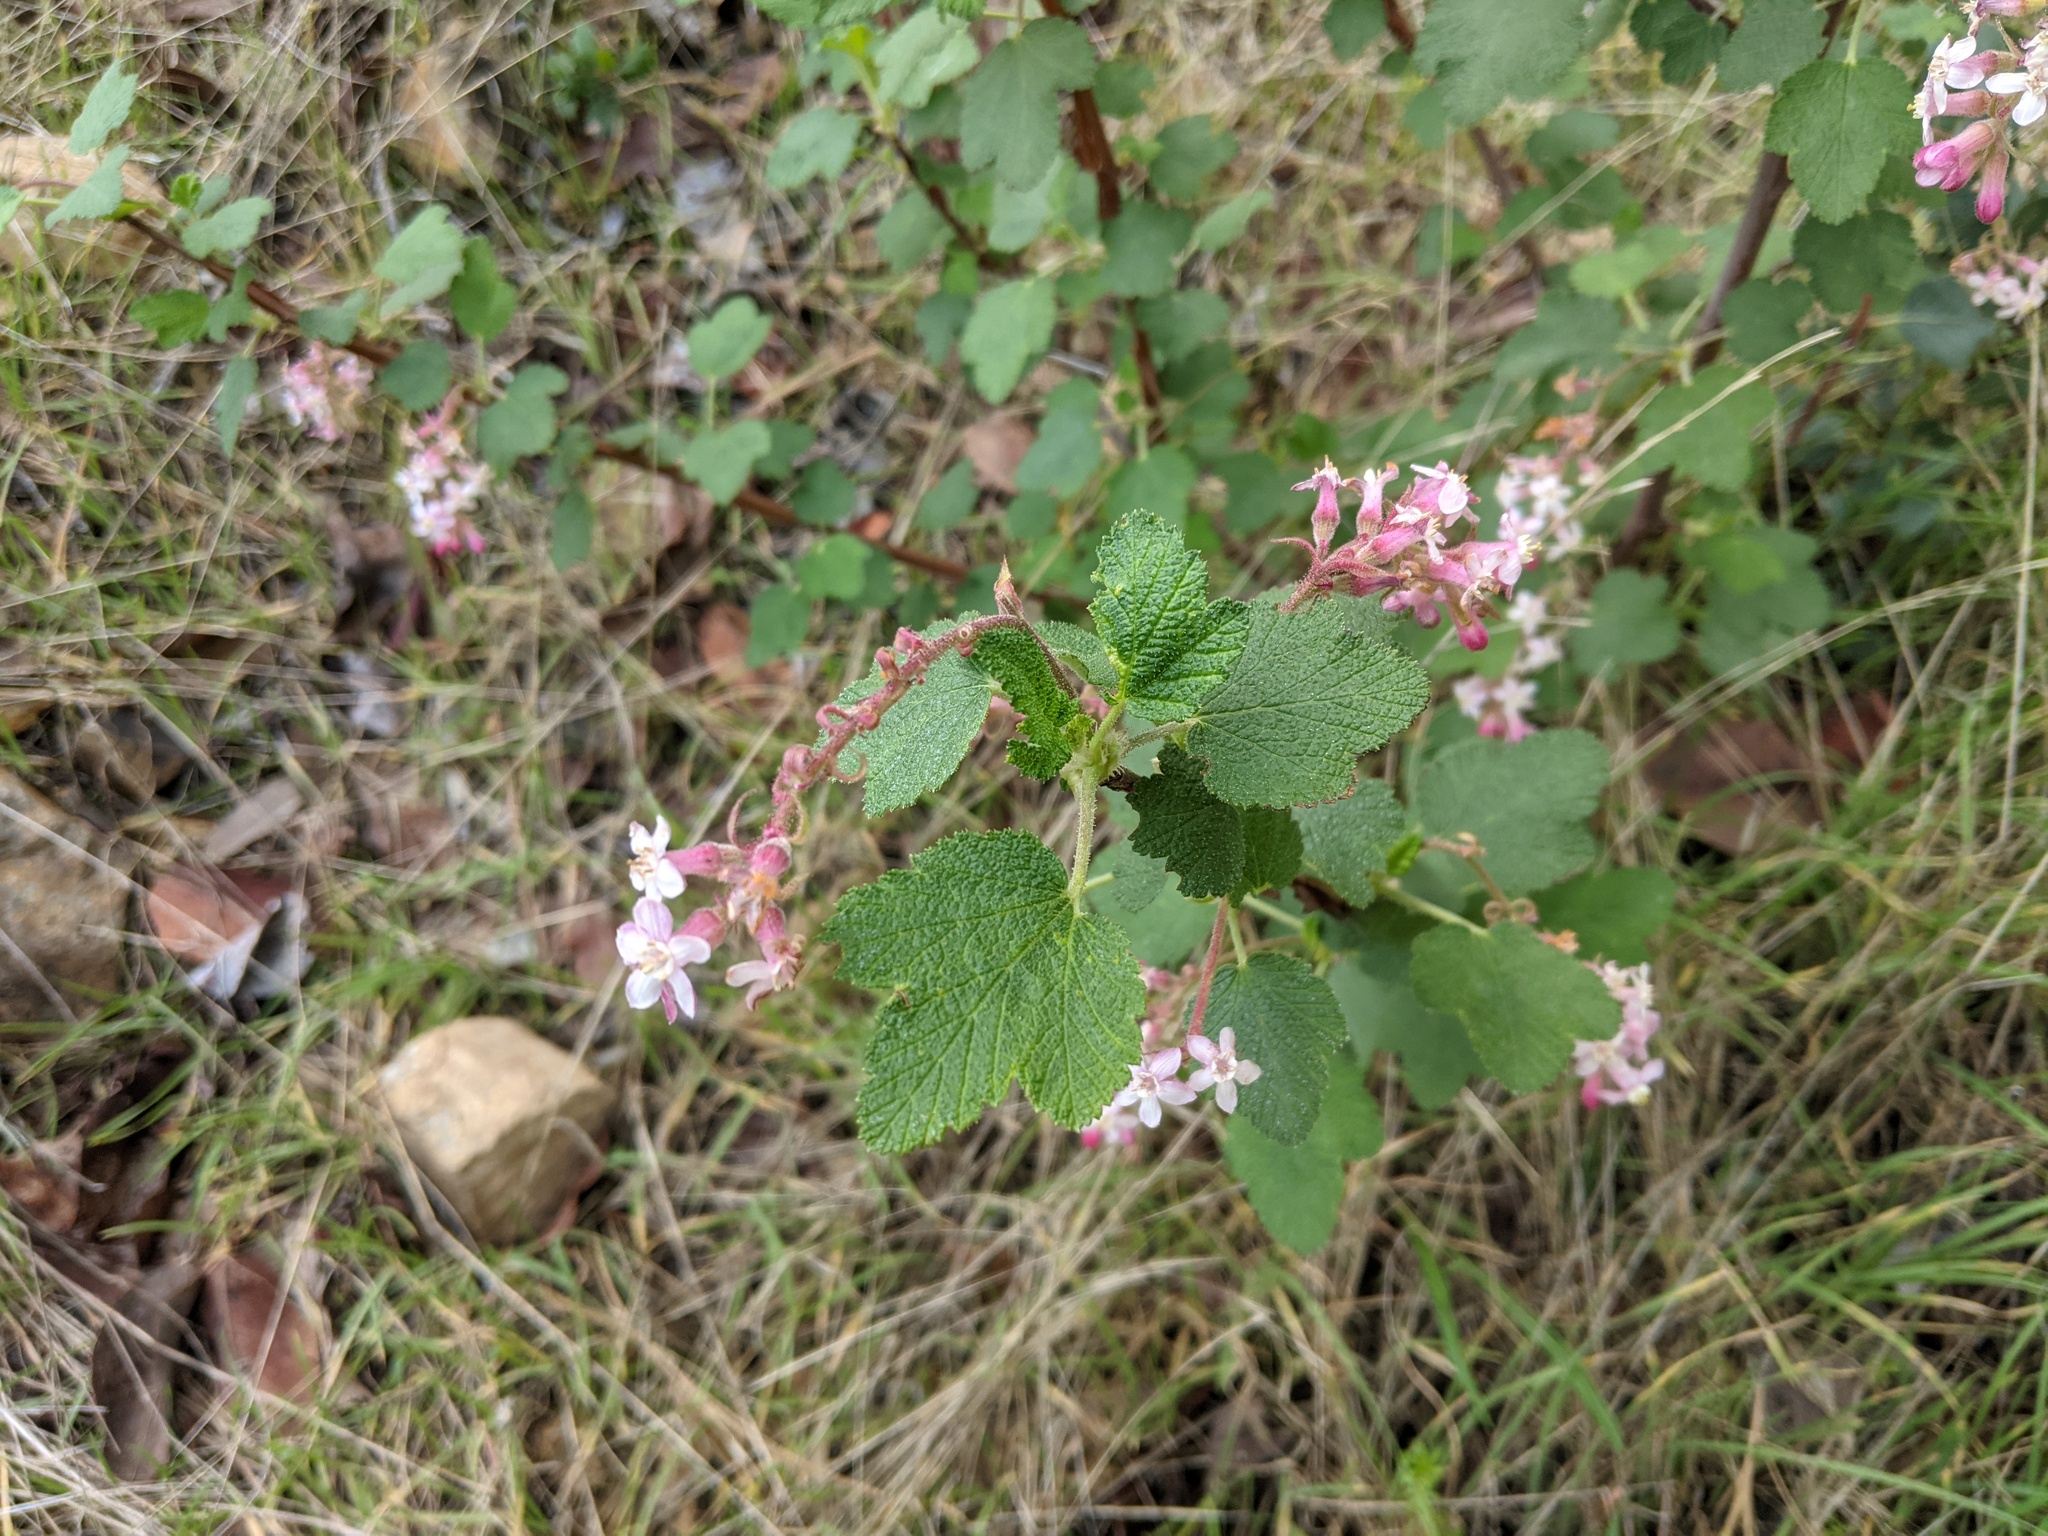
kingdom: Plantae
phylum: Tracheophyta
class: Magnoliopsida
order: Saxifragales
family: Grossulariaceae
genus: Ribes
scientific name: Ribes malvaceum
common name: Chaparral currant
